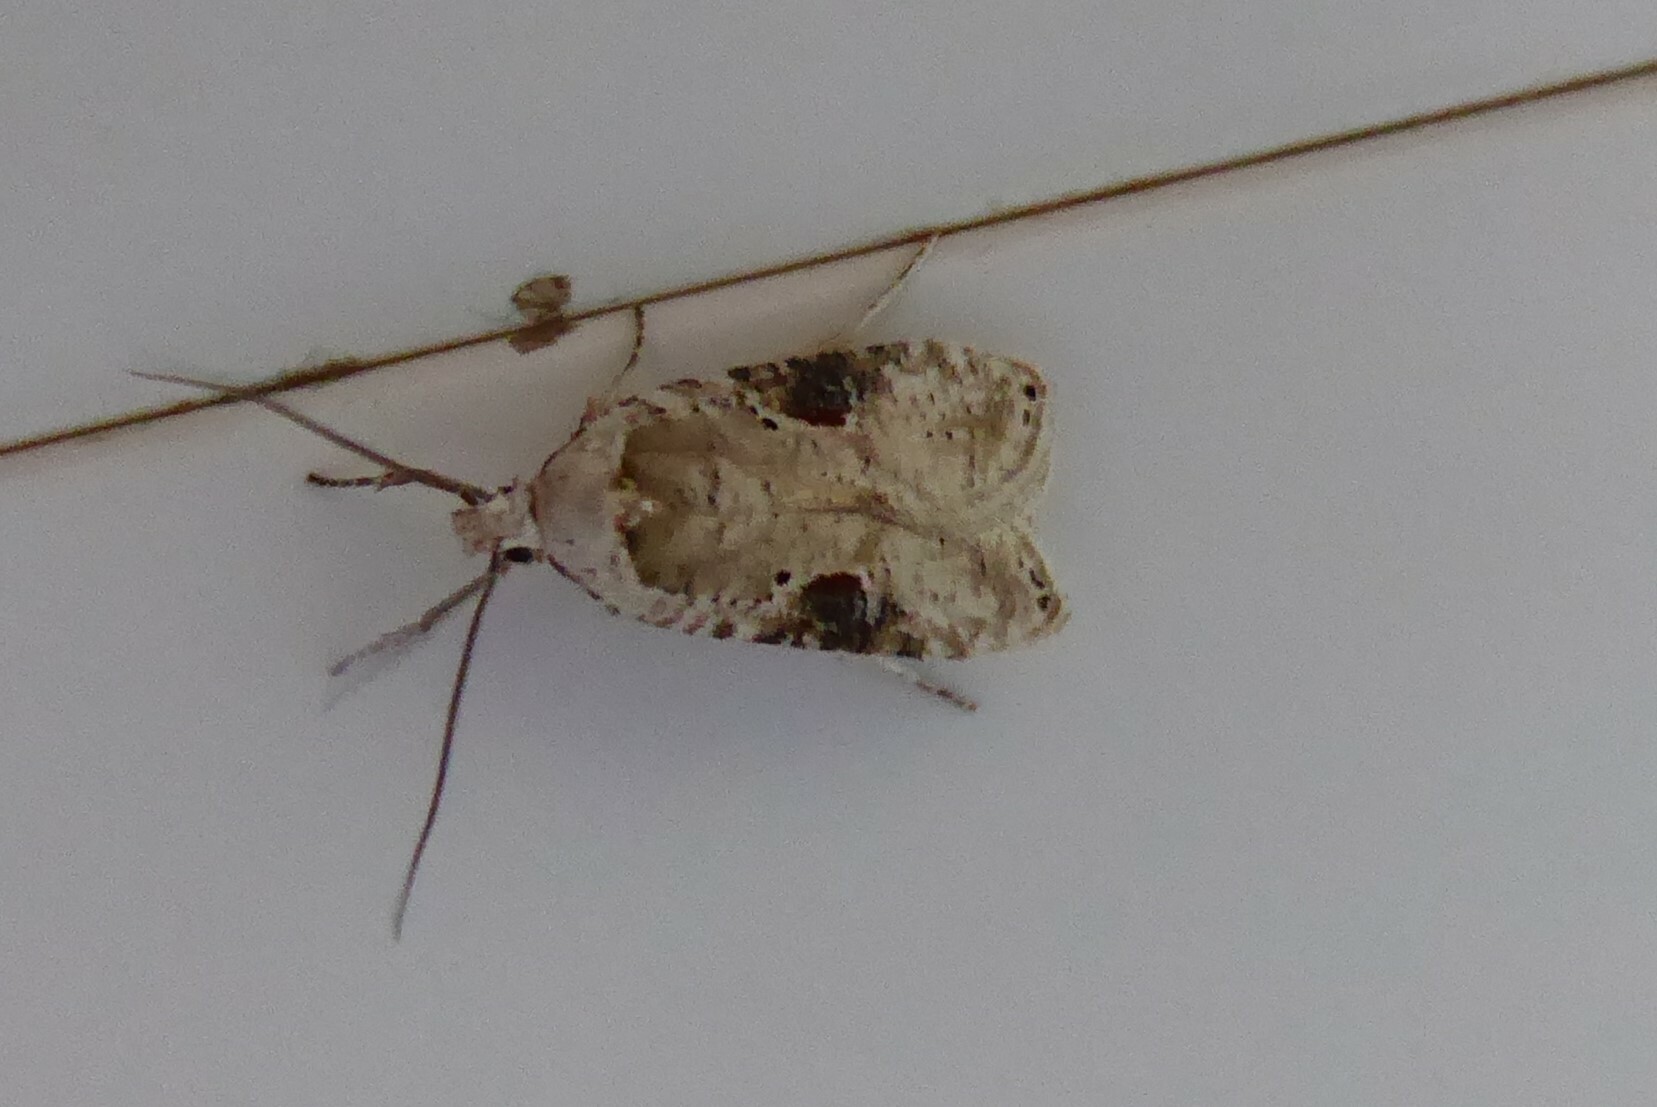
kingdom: Animalia
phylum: Arthropoda
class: Insecta
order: Lepidoptera
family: Depressariidae
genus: Agonopterix
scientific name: Agonopterix alstroemeriana
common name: Moth
